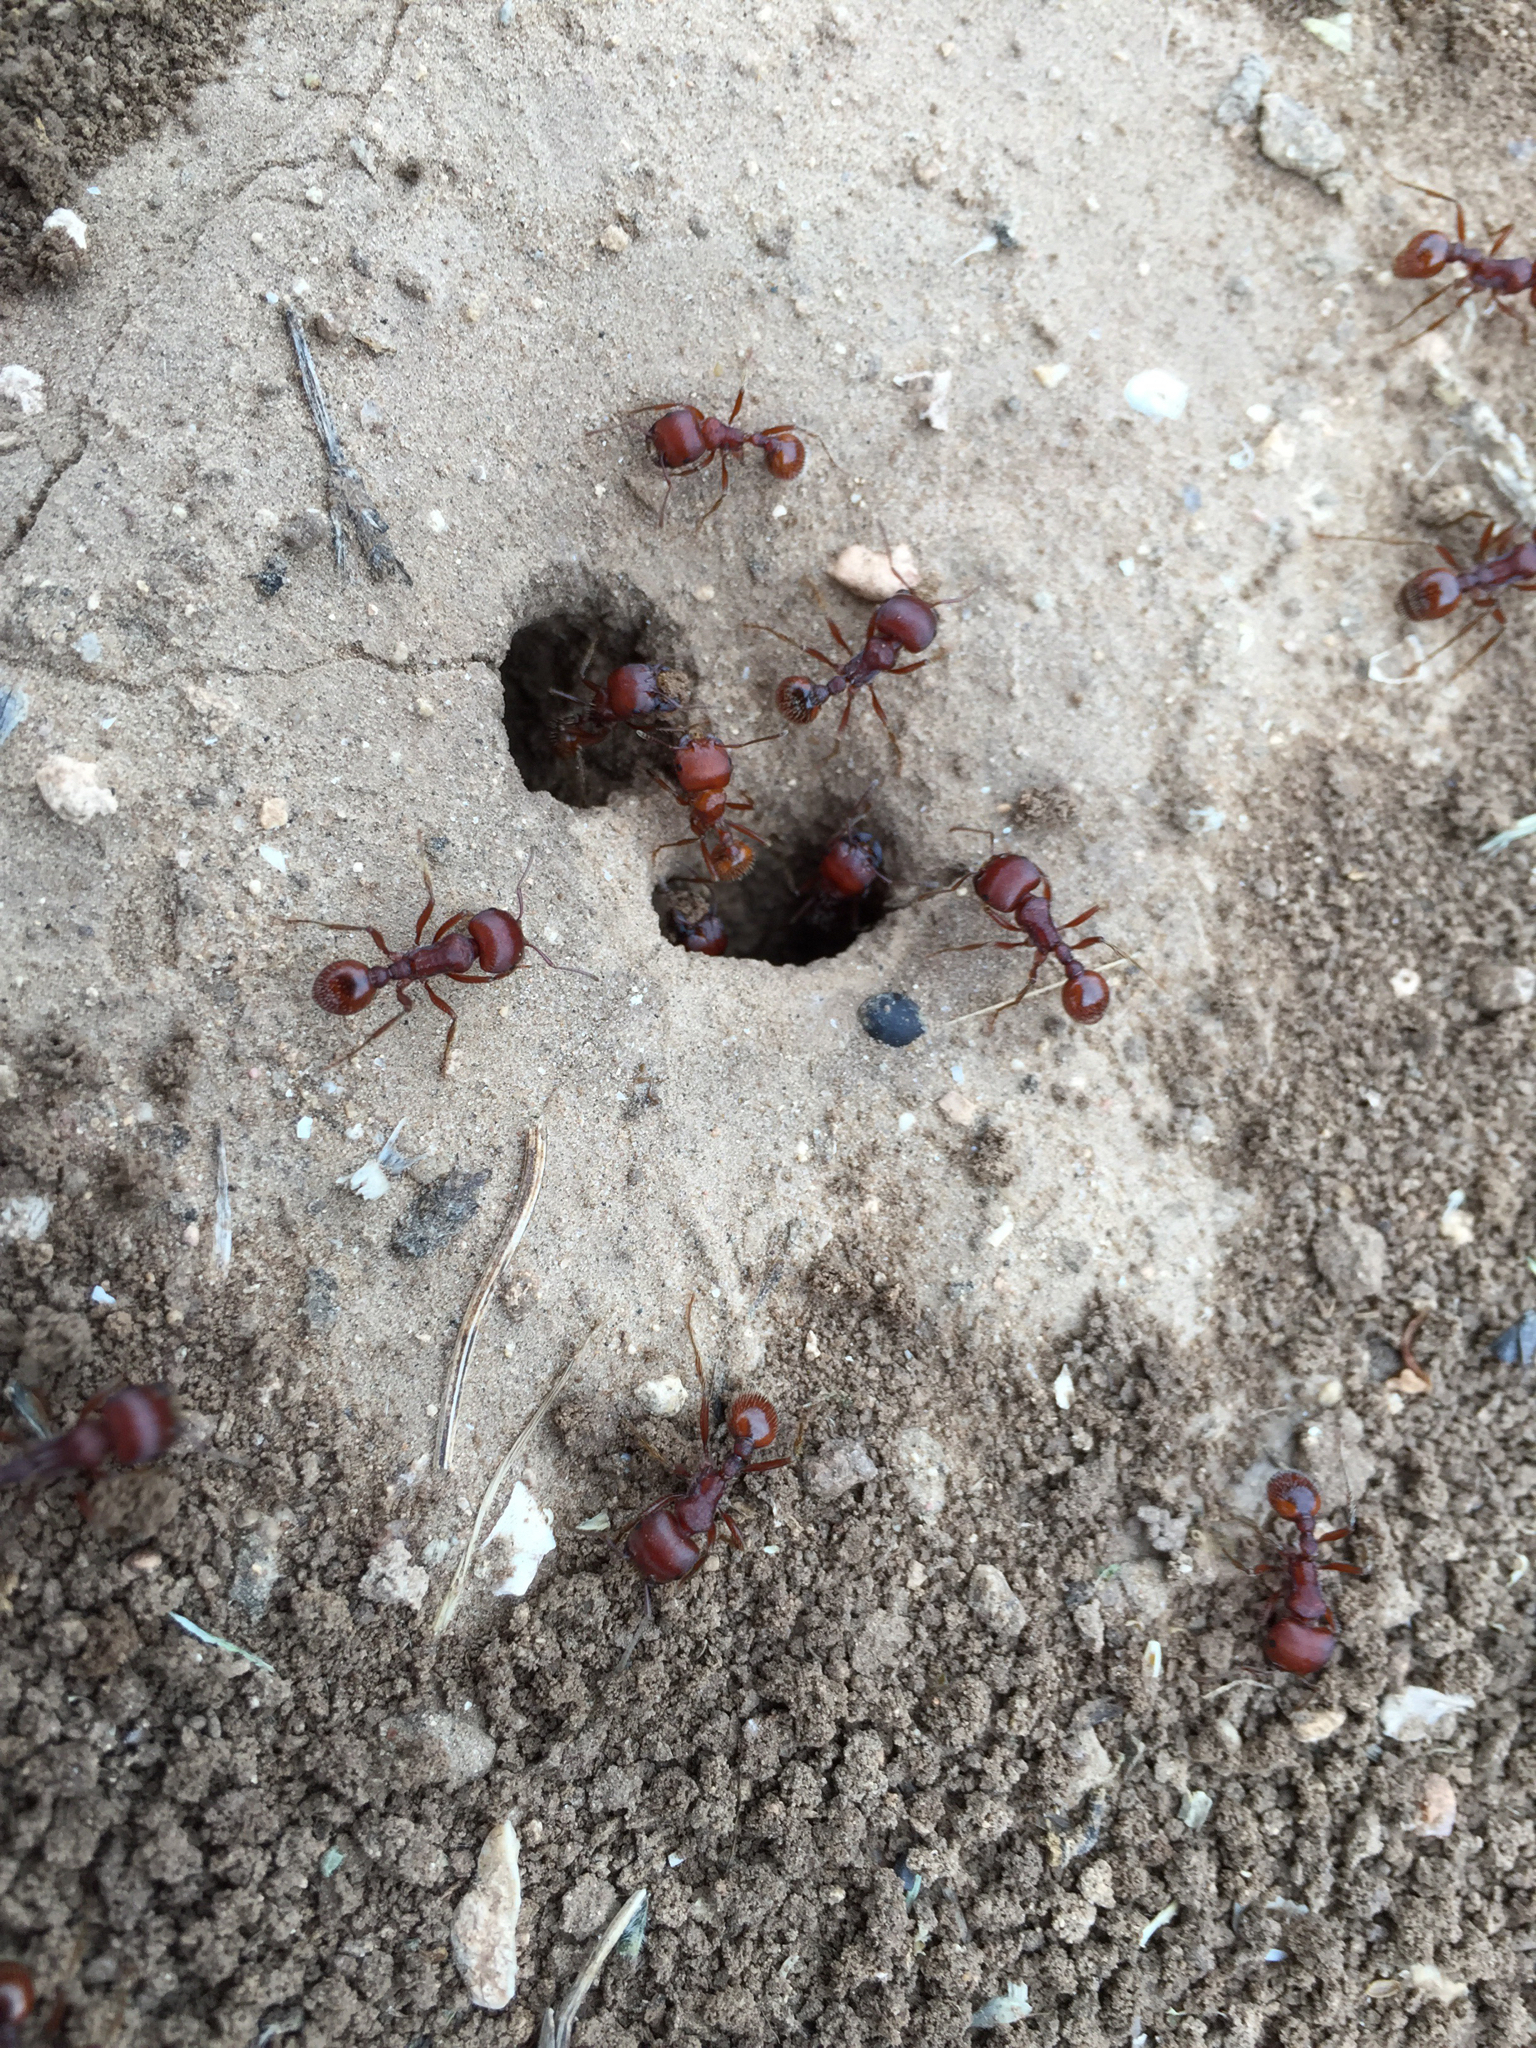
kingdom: Animalia
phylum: Arthropoda
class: Insecta
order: Hymenoptera
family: Formicidae
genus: Pogonomyrmex
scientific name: Pogonomyrmex barbatus
